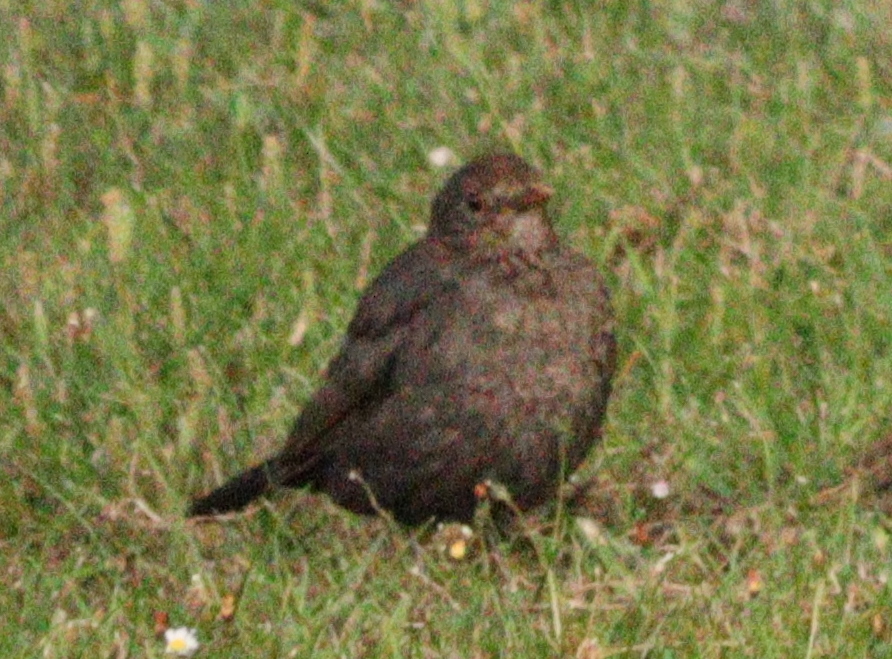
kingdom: Animalia
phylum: Chordata
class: Aves
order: Passeriformes
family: Turdidae
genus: Turdus
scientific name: Turdus merula
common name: Common blackbird
